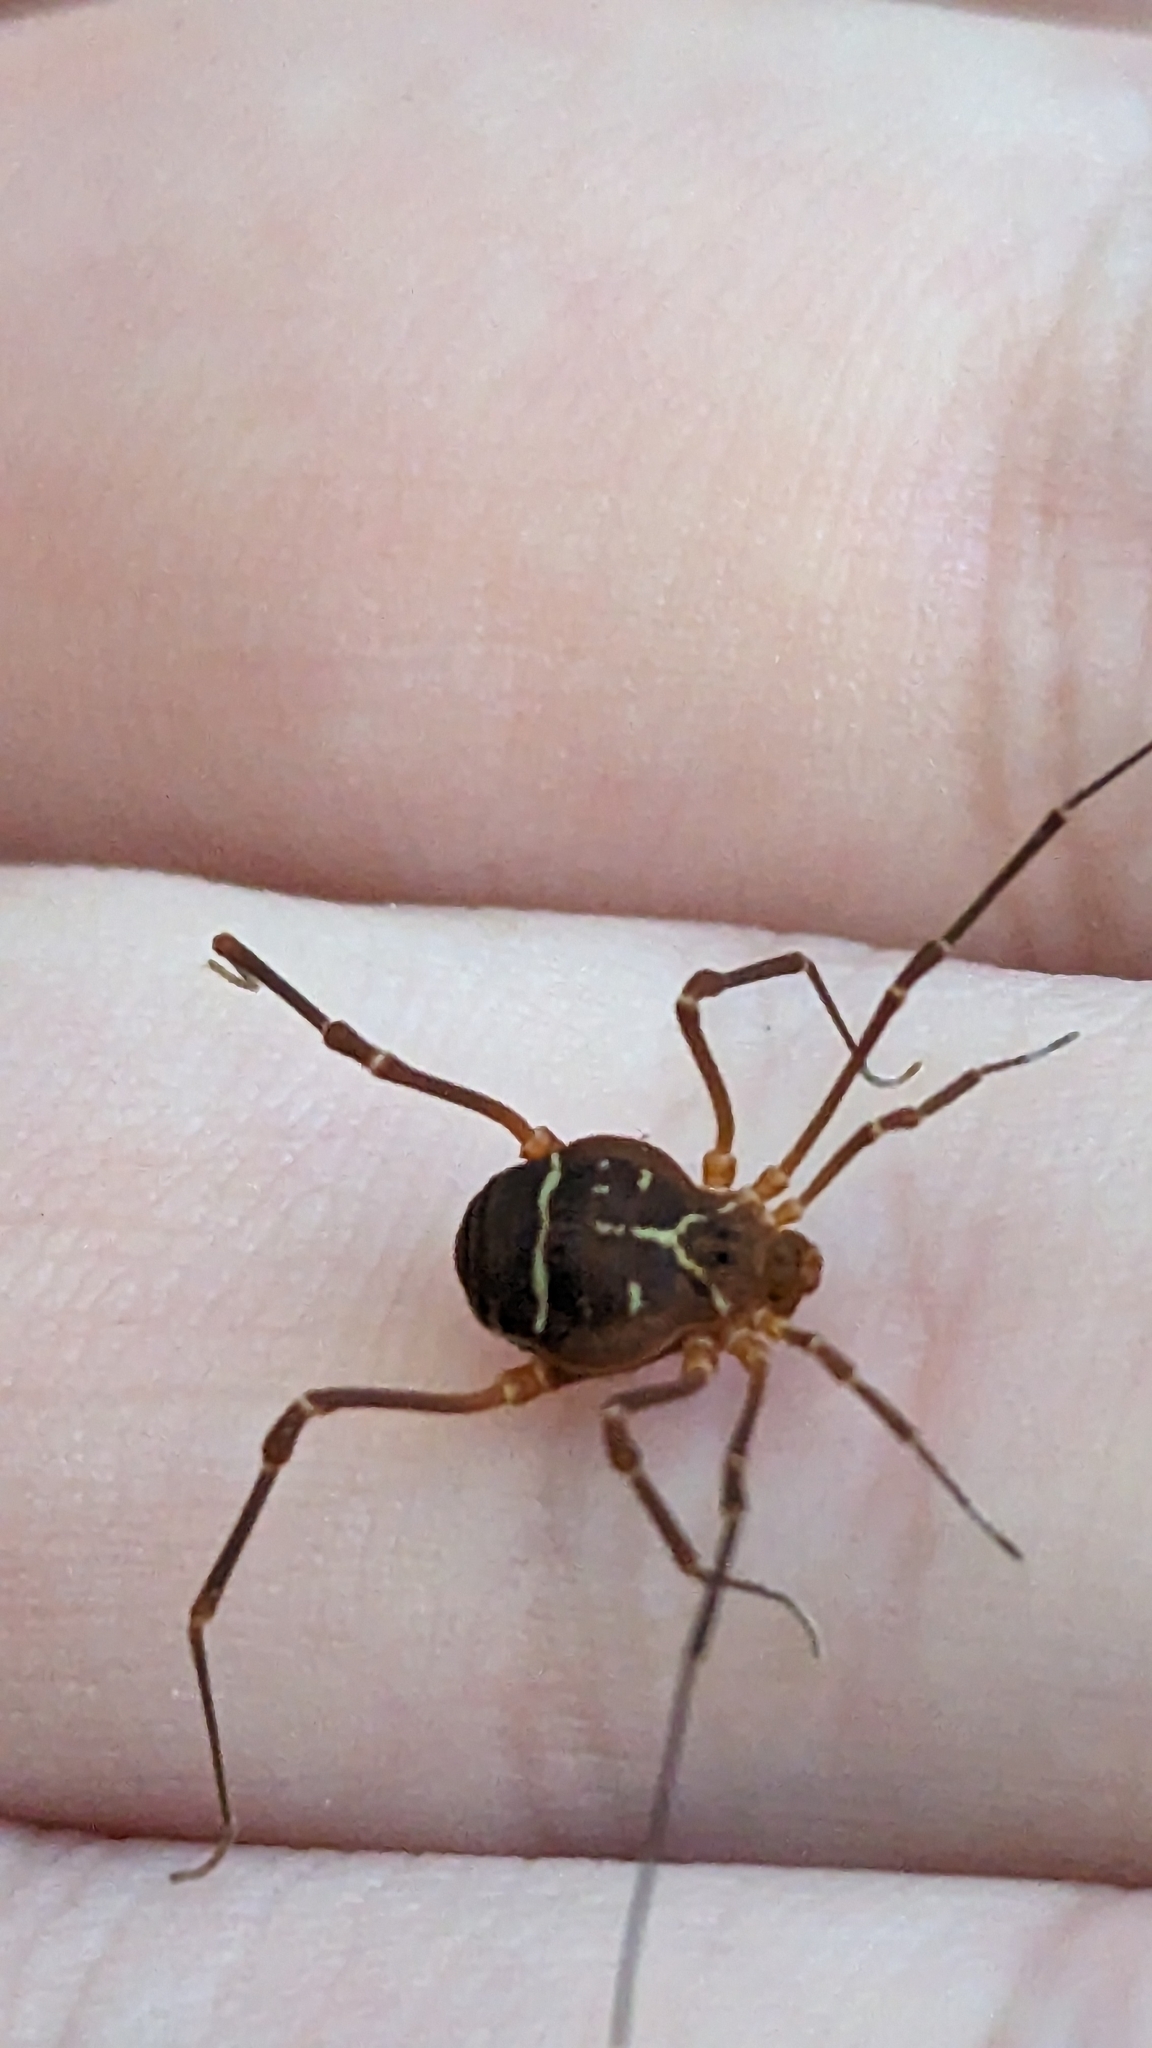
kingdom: Animalia
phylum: Arthropoda
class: Arachnida
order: Opiliones
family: Cosmetidae
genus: Libitioides
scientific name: Libitioides sayi
